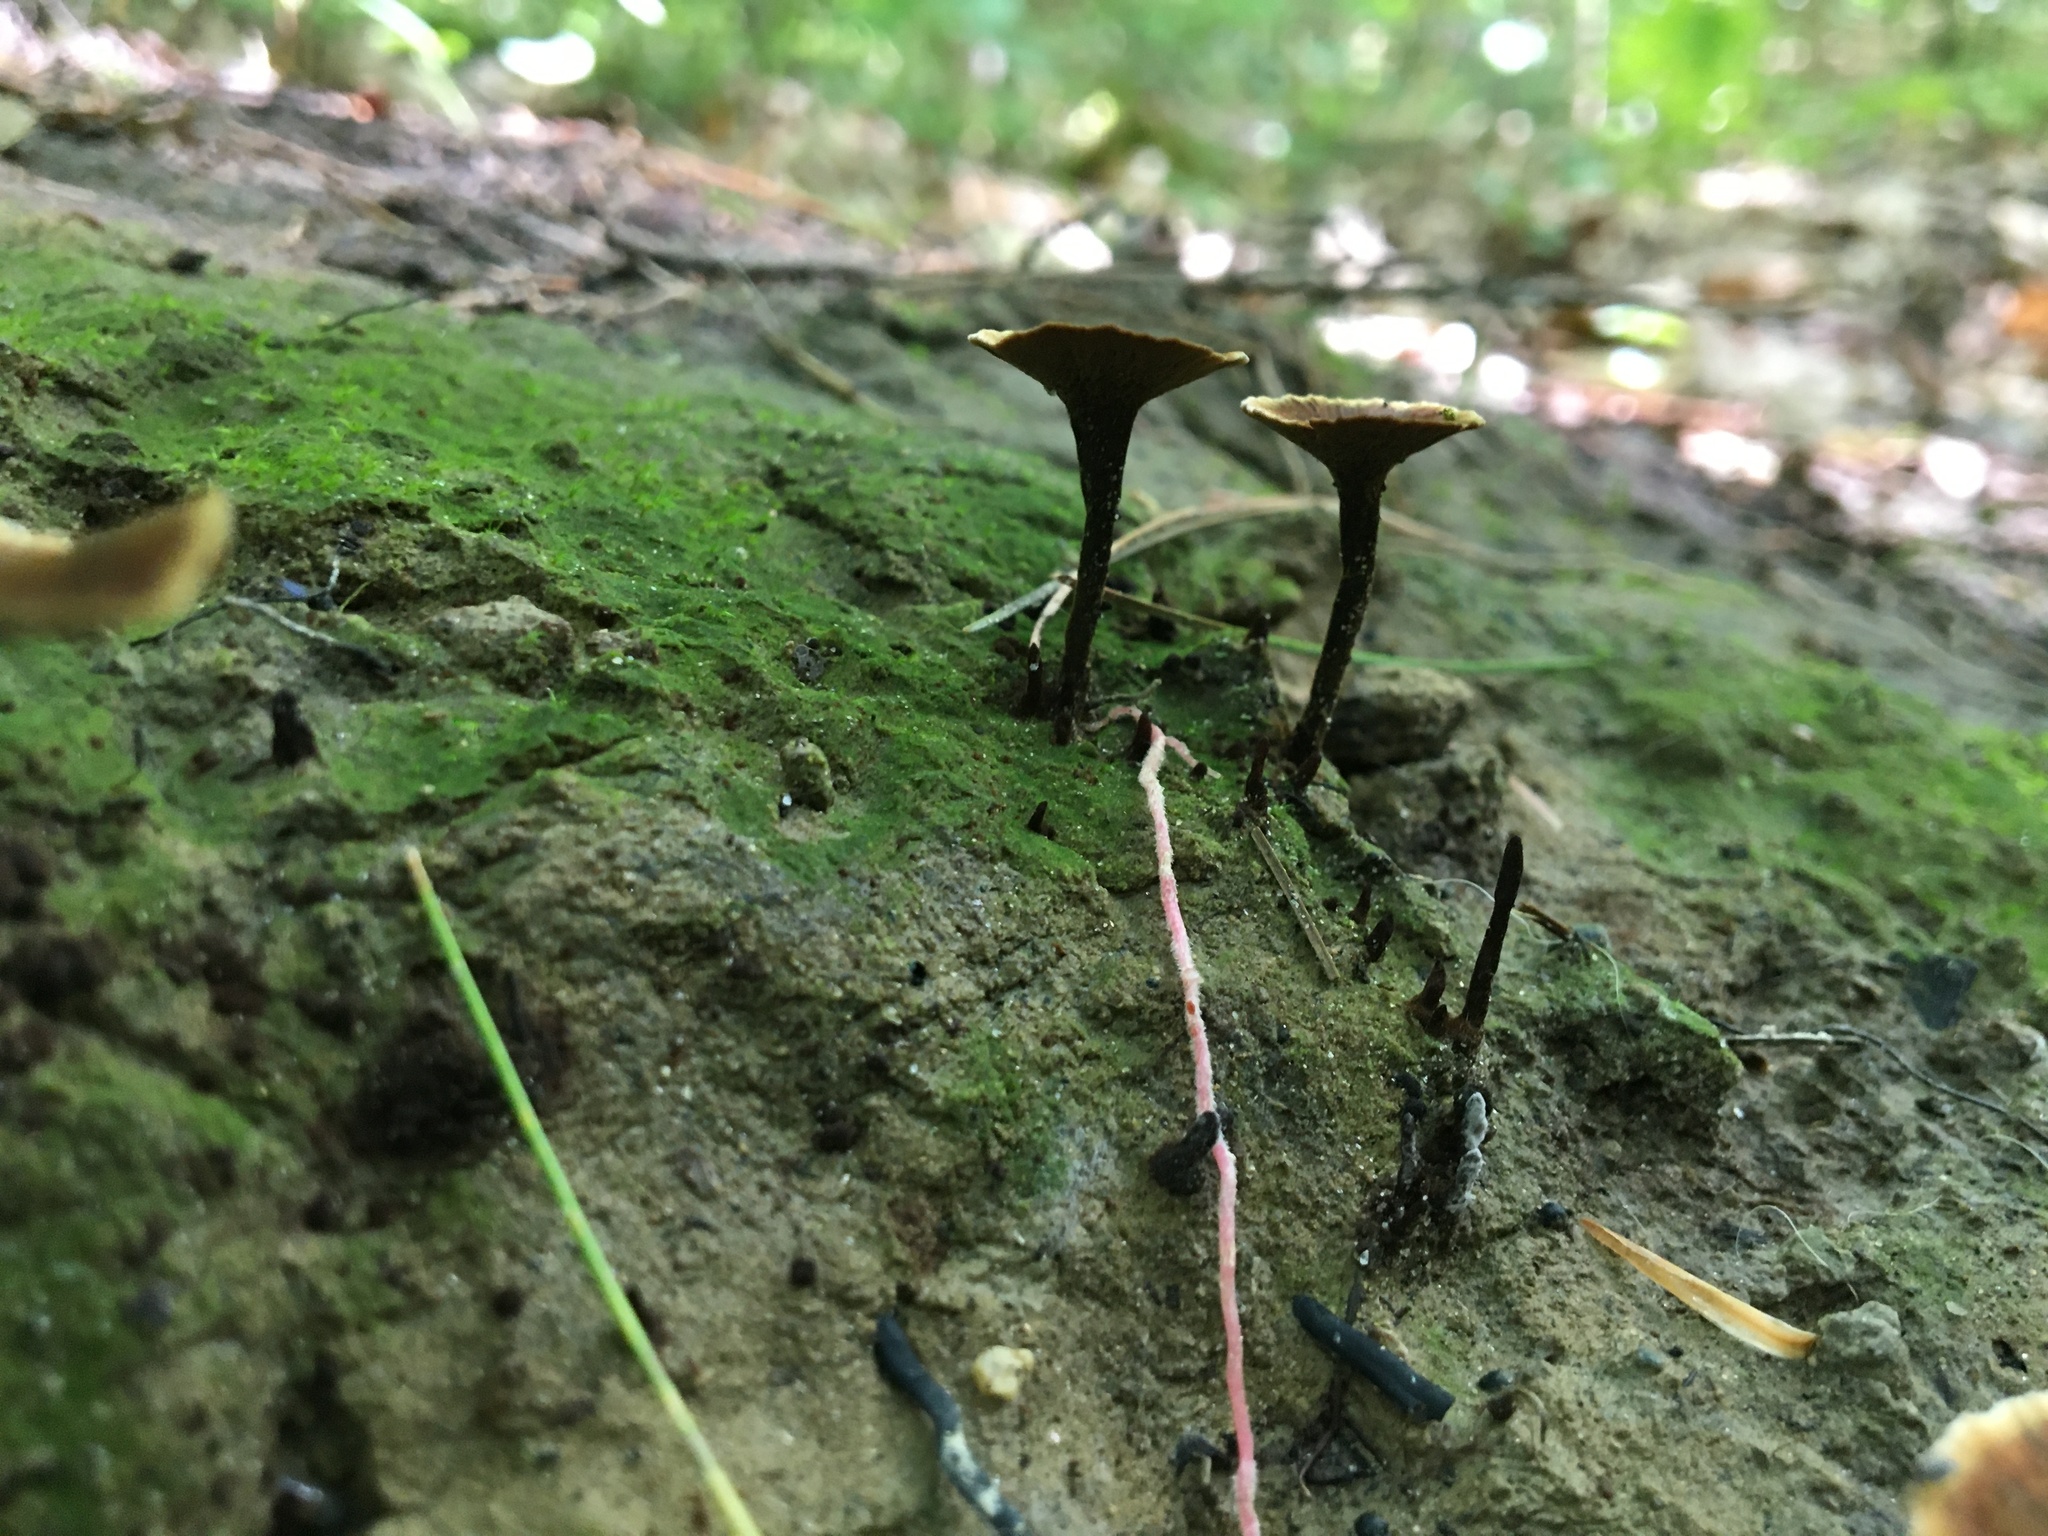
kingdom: Fungi
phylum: Basidiomycota
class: Agaricomycetes
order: Hymenochaetales
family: Hymenochaetaceae
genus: Coltricia
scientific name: Coltricia cinnamomea
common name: Shiny cinnamon polypore
